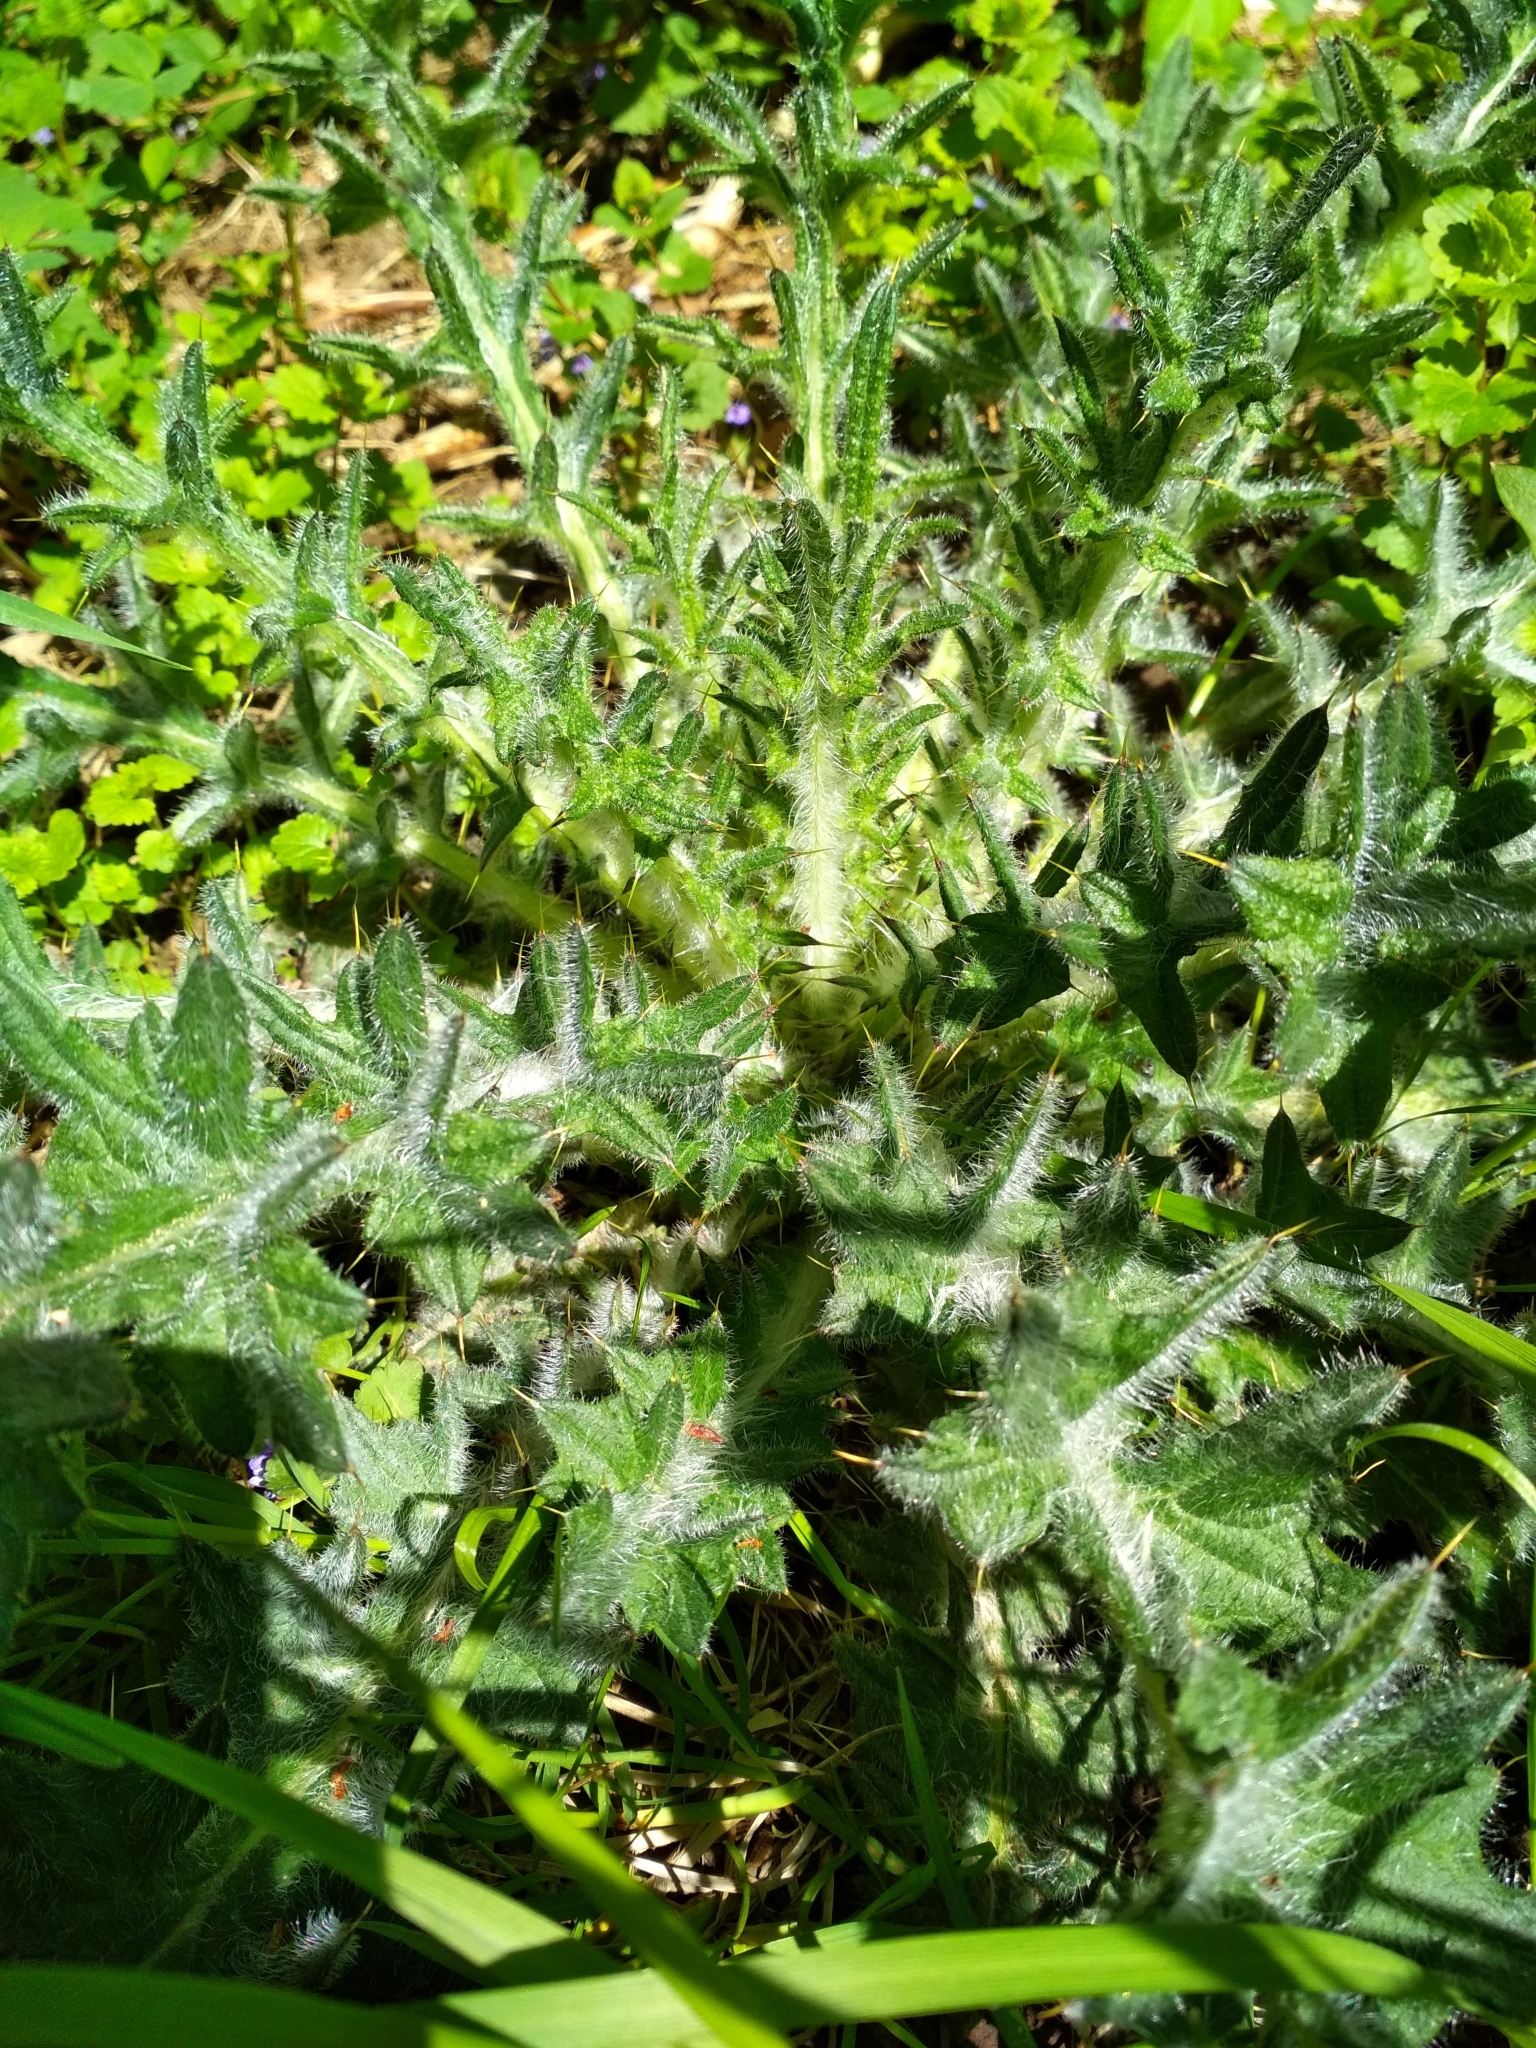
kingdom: Plantae
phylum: Tracheophyta
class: Magnoliopsida
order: Asterales
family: Asteraceae
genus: Cirsium
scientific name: Cirsium vulgare
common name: Bull thistle
